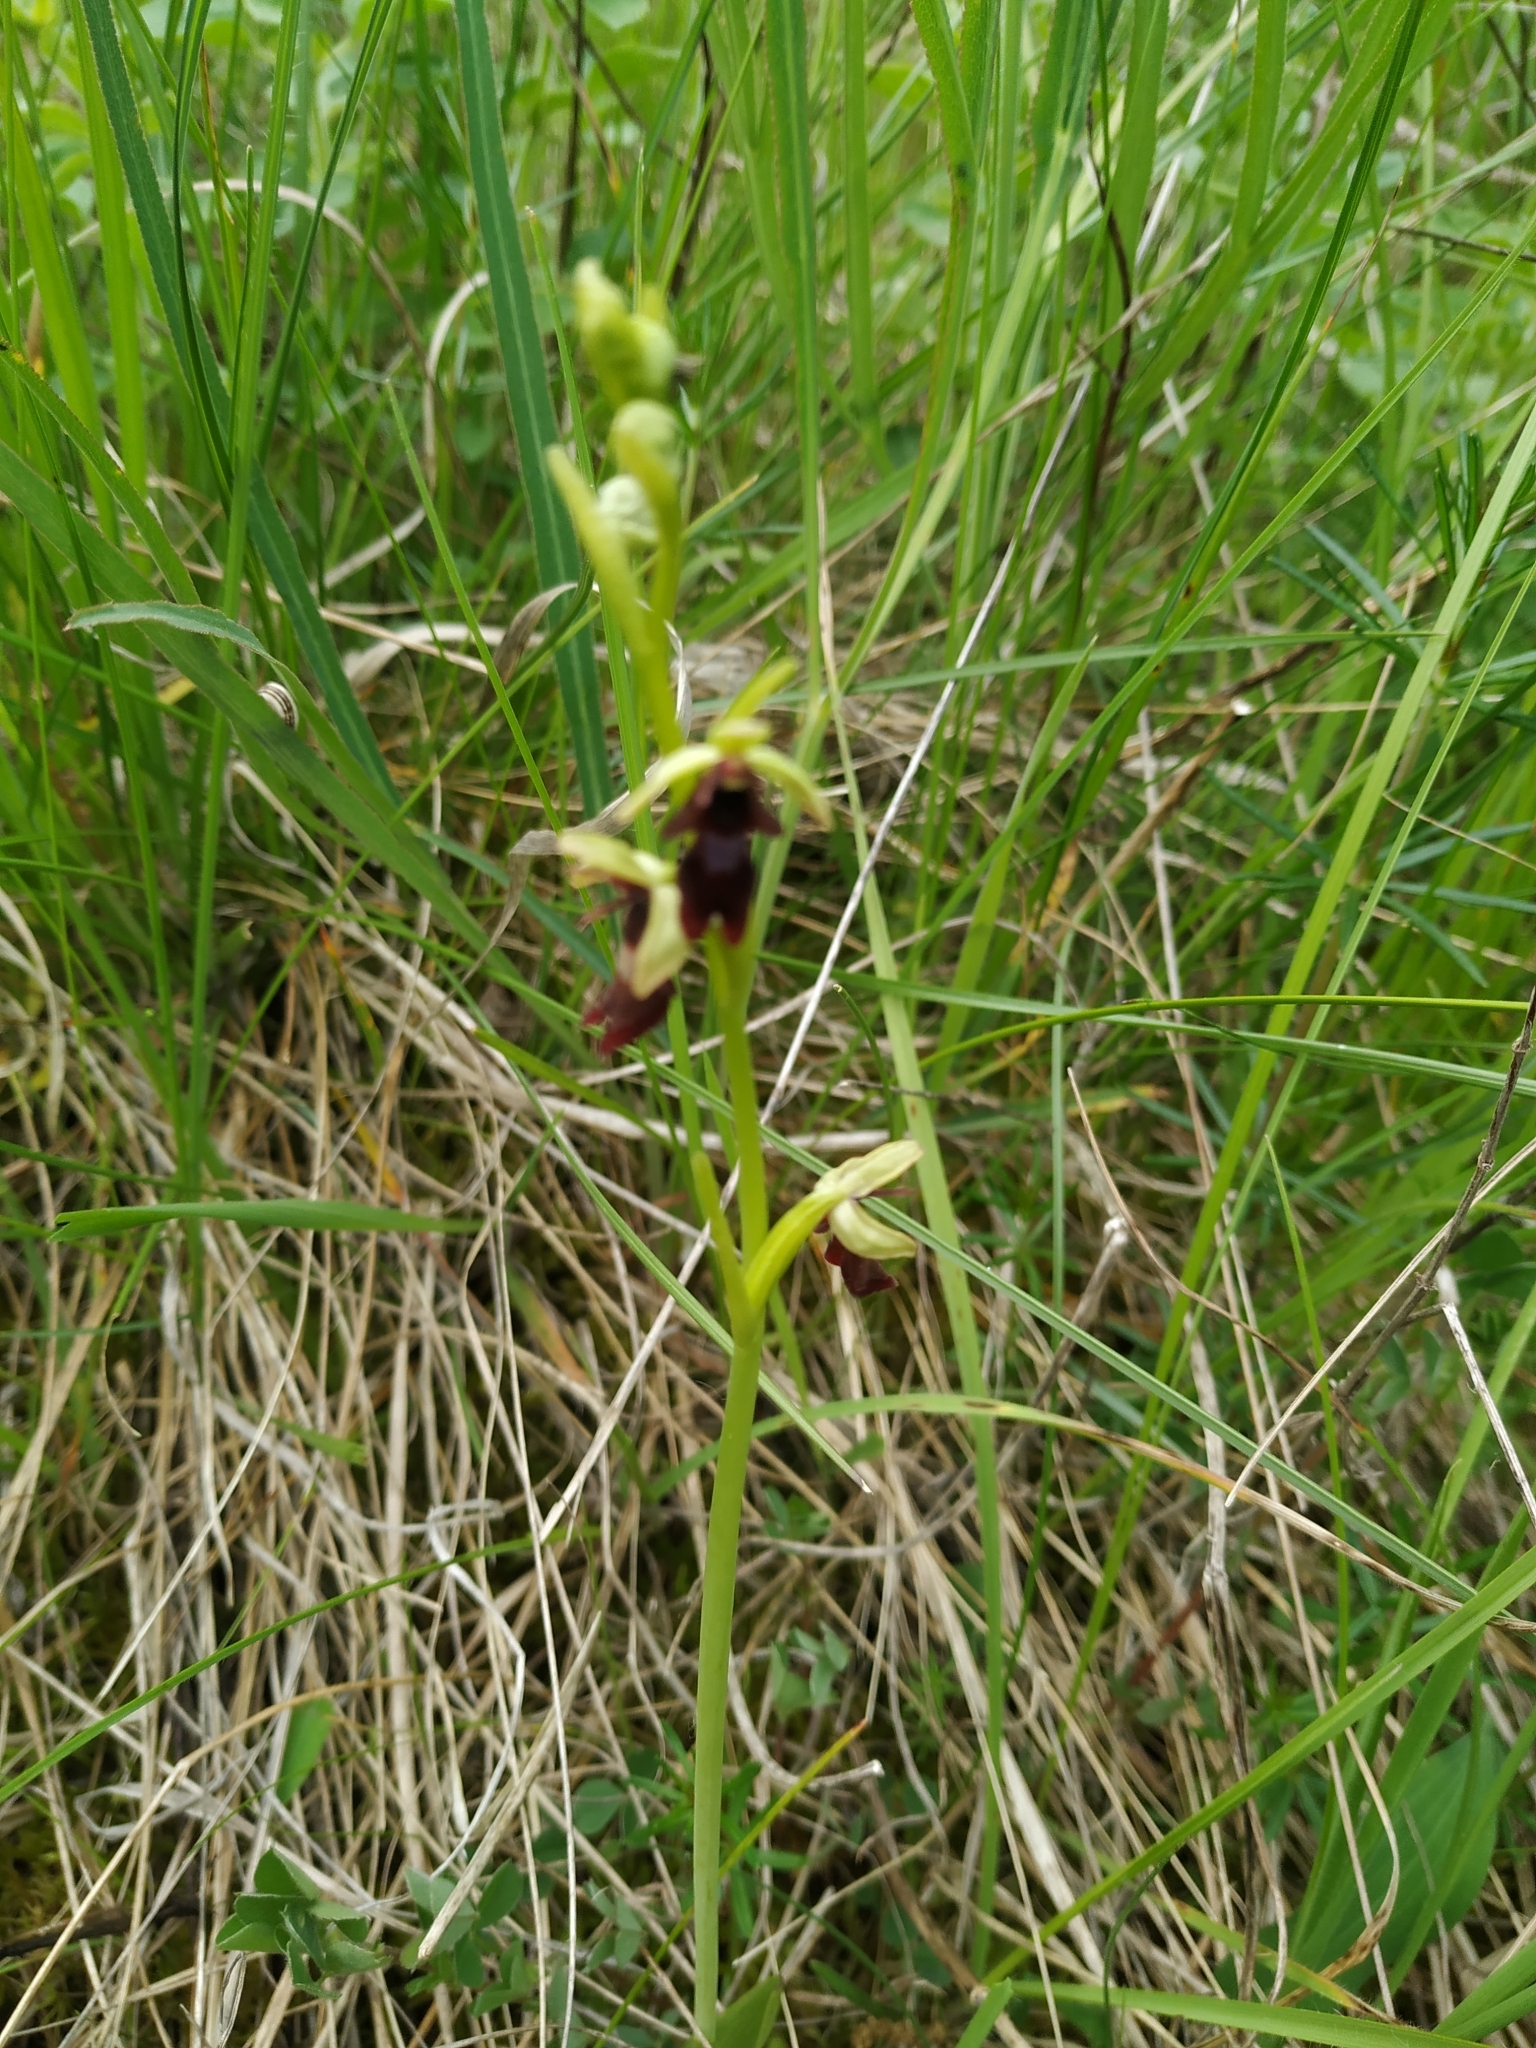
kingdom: Plantae
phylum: Tracheophyta
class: Liliopsida
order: Asparagales
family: Orchidaceae
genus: Ophrys
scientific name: Ophrys insectifera
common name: Fly orchid
